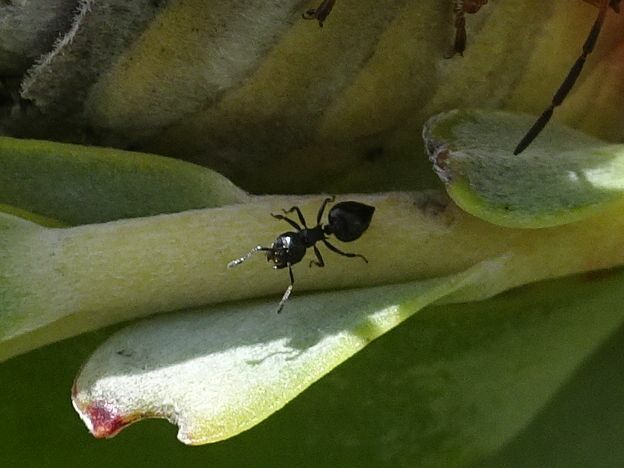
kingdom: Animalia
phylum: Arthropoda
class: Insecta
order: Hymenoptera
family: Formicidae
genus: Crematogaster
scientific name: Crematogaster peringueyi
